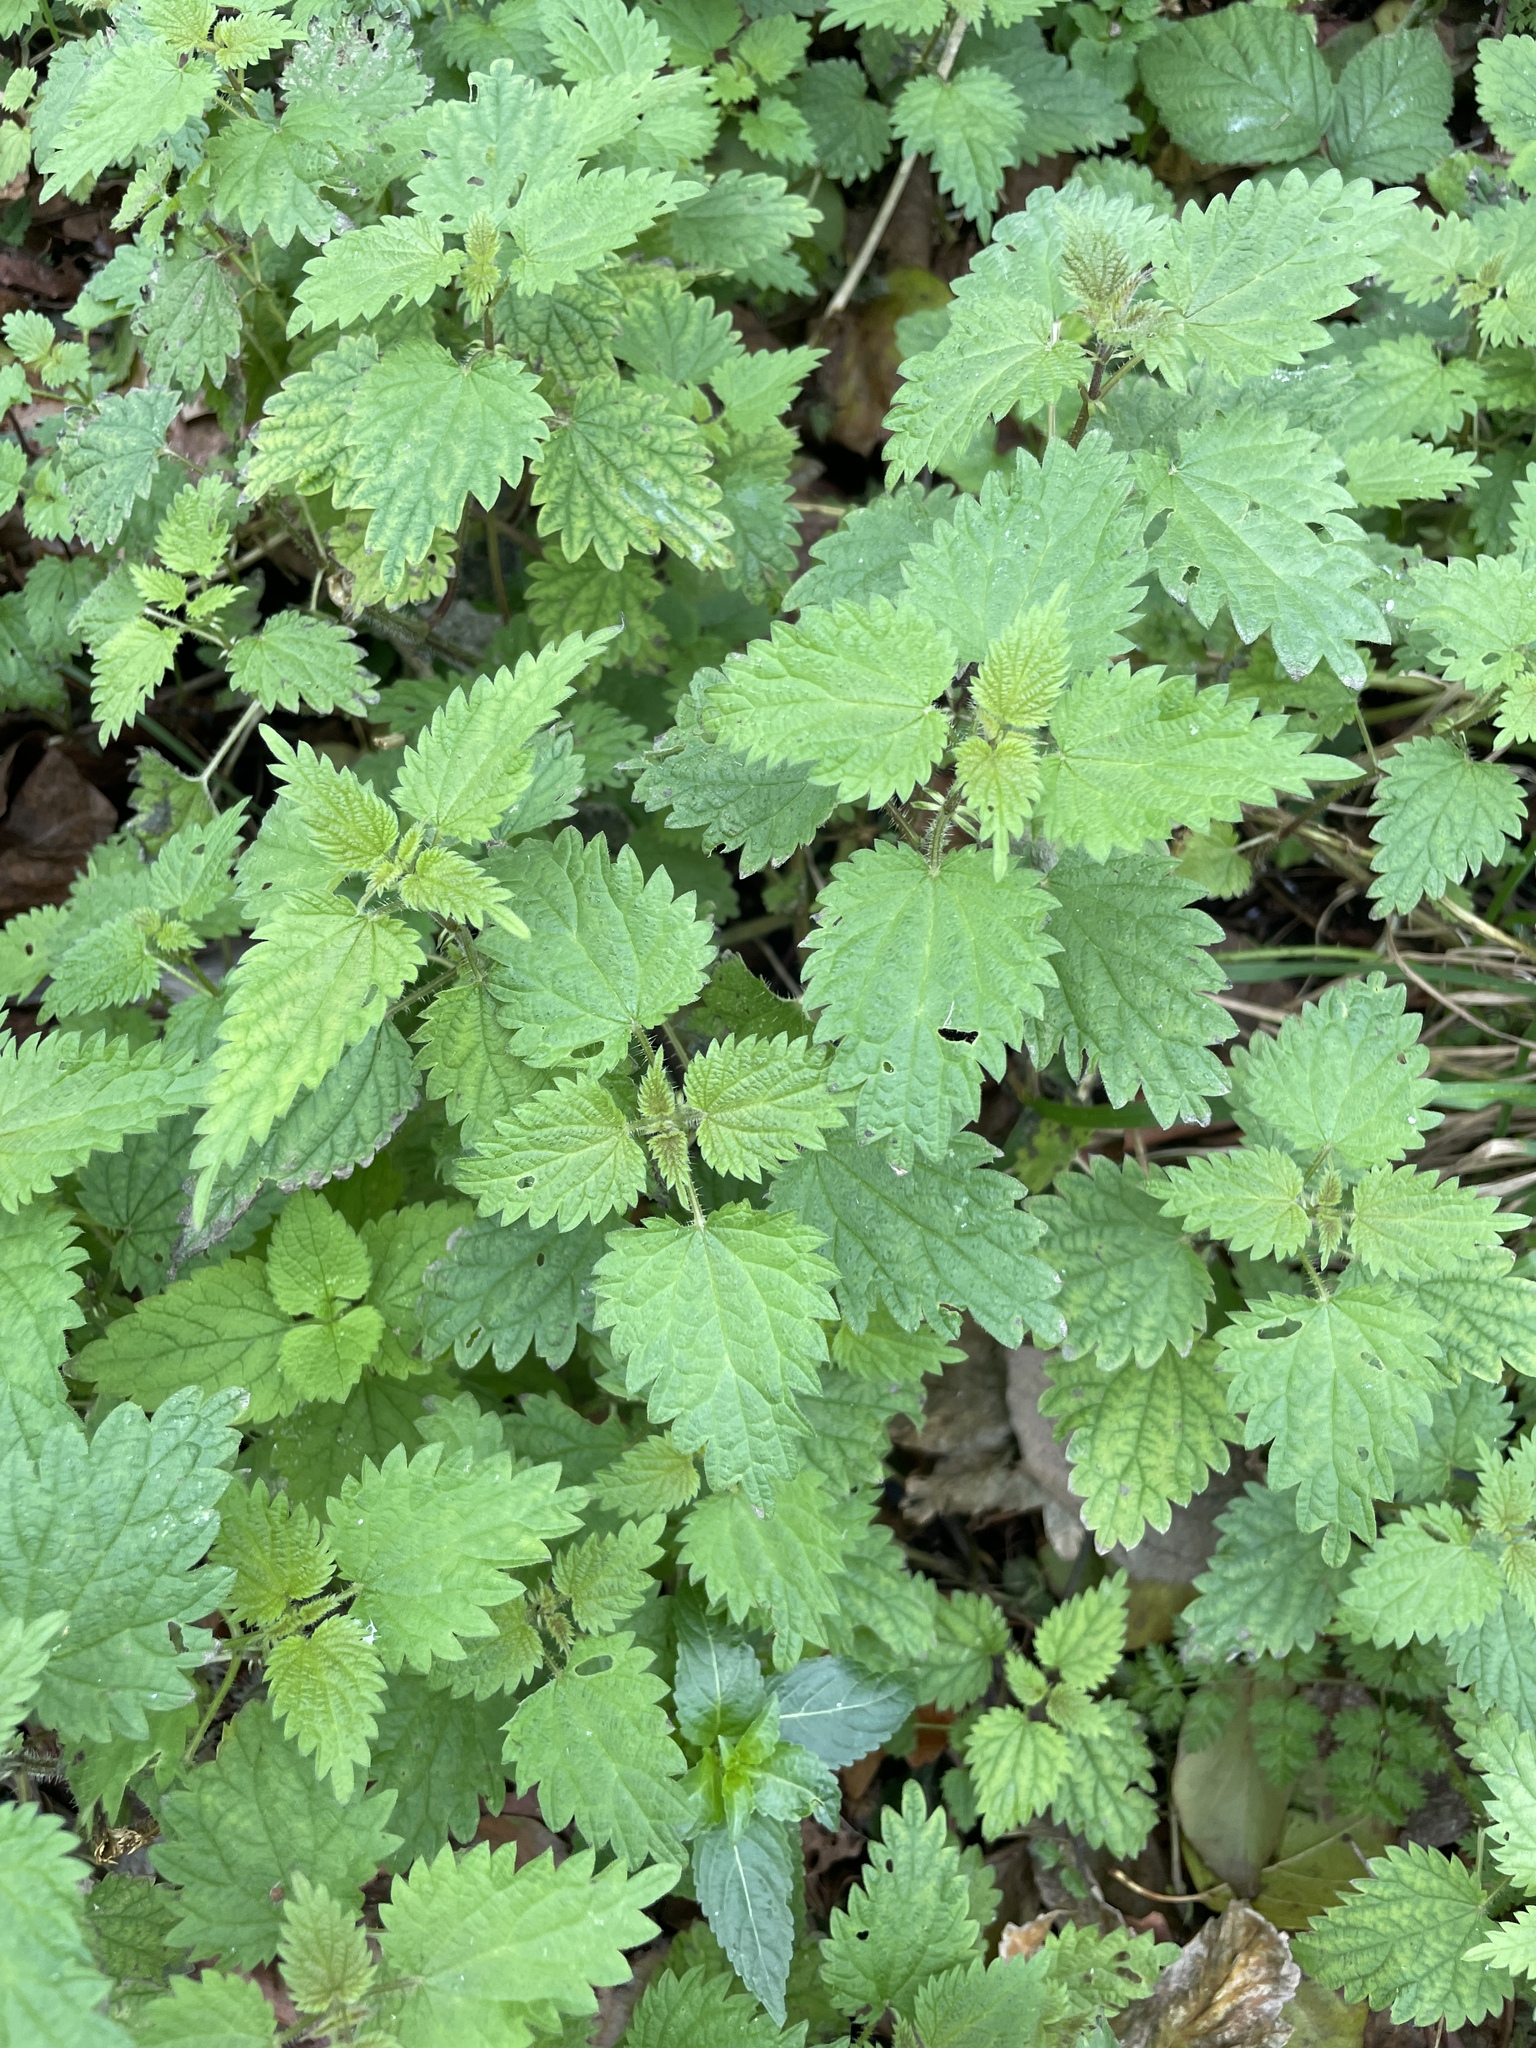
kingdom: Plantae
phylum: Tracheophyta
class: Magnoliopsida
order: Rosales
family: Urticaceae
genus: Urtica
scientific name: Urtica dioica
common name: Common nettle
